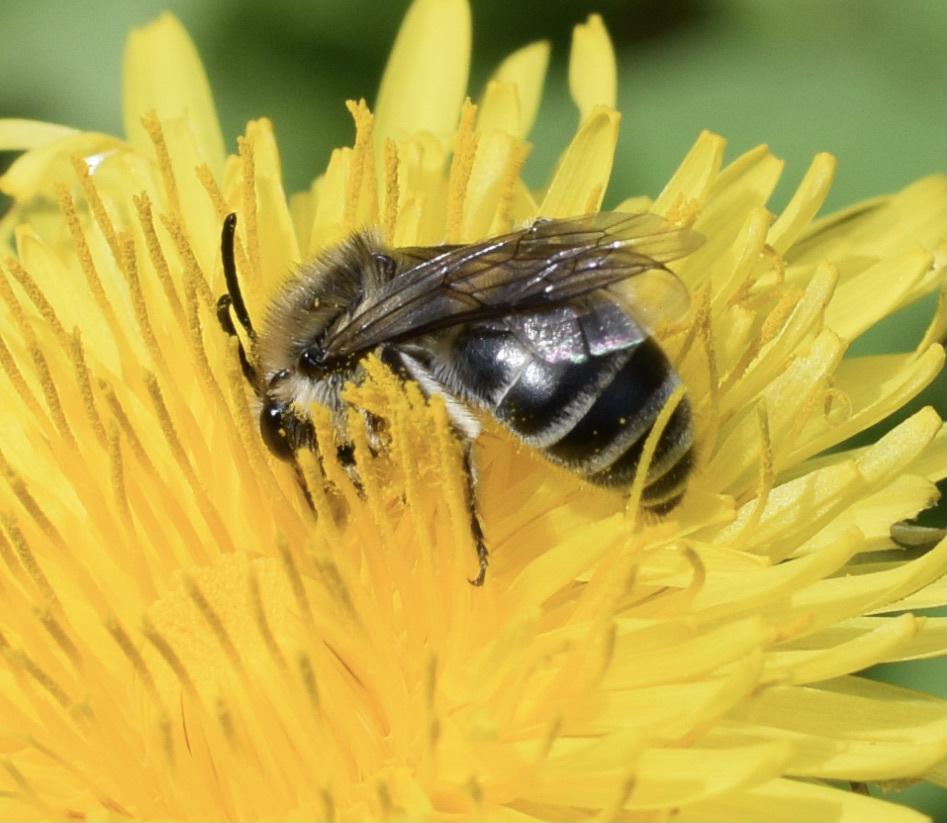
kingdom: Animalia
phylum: Arthropoda
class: Insecta
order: Hymenoptera
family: Colletidae
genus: Colletes
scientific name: Colletes inaequalis
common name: Unequal cellophane bee
